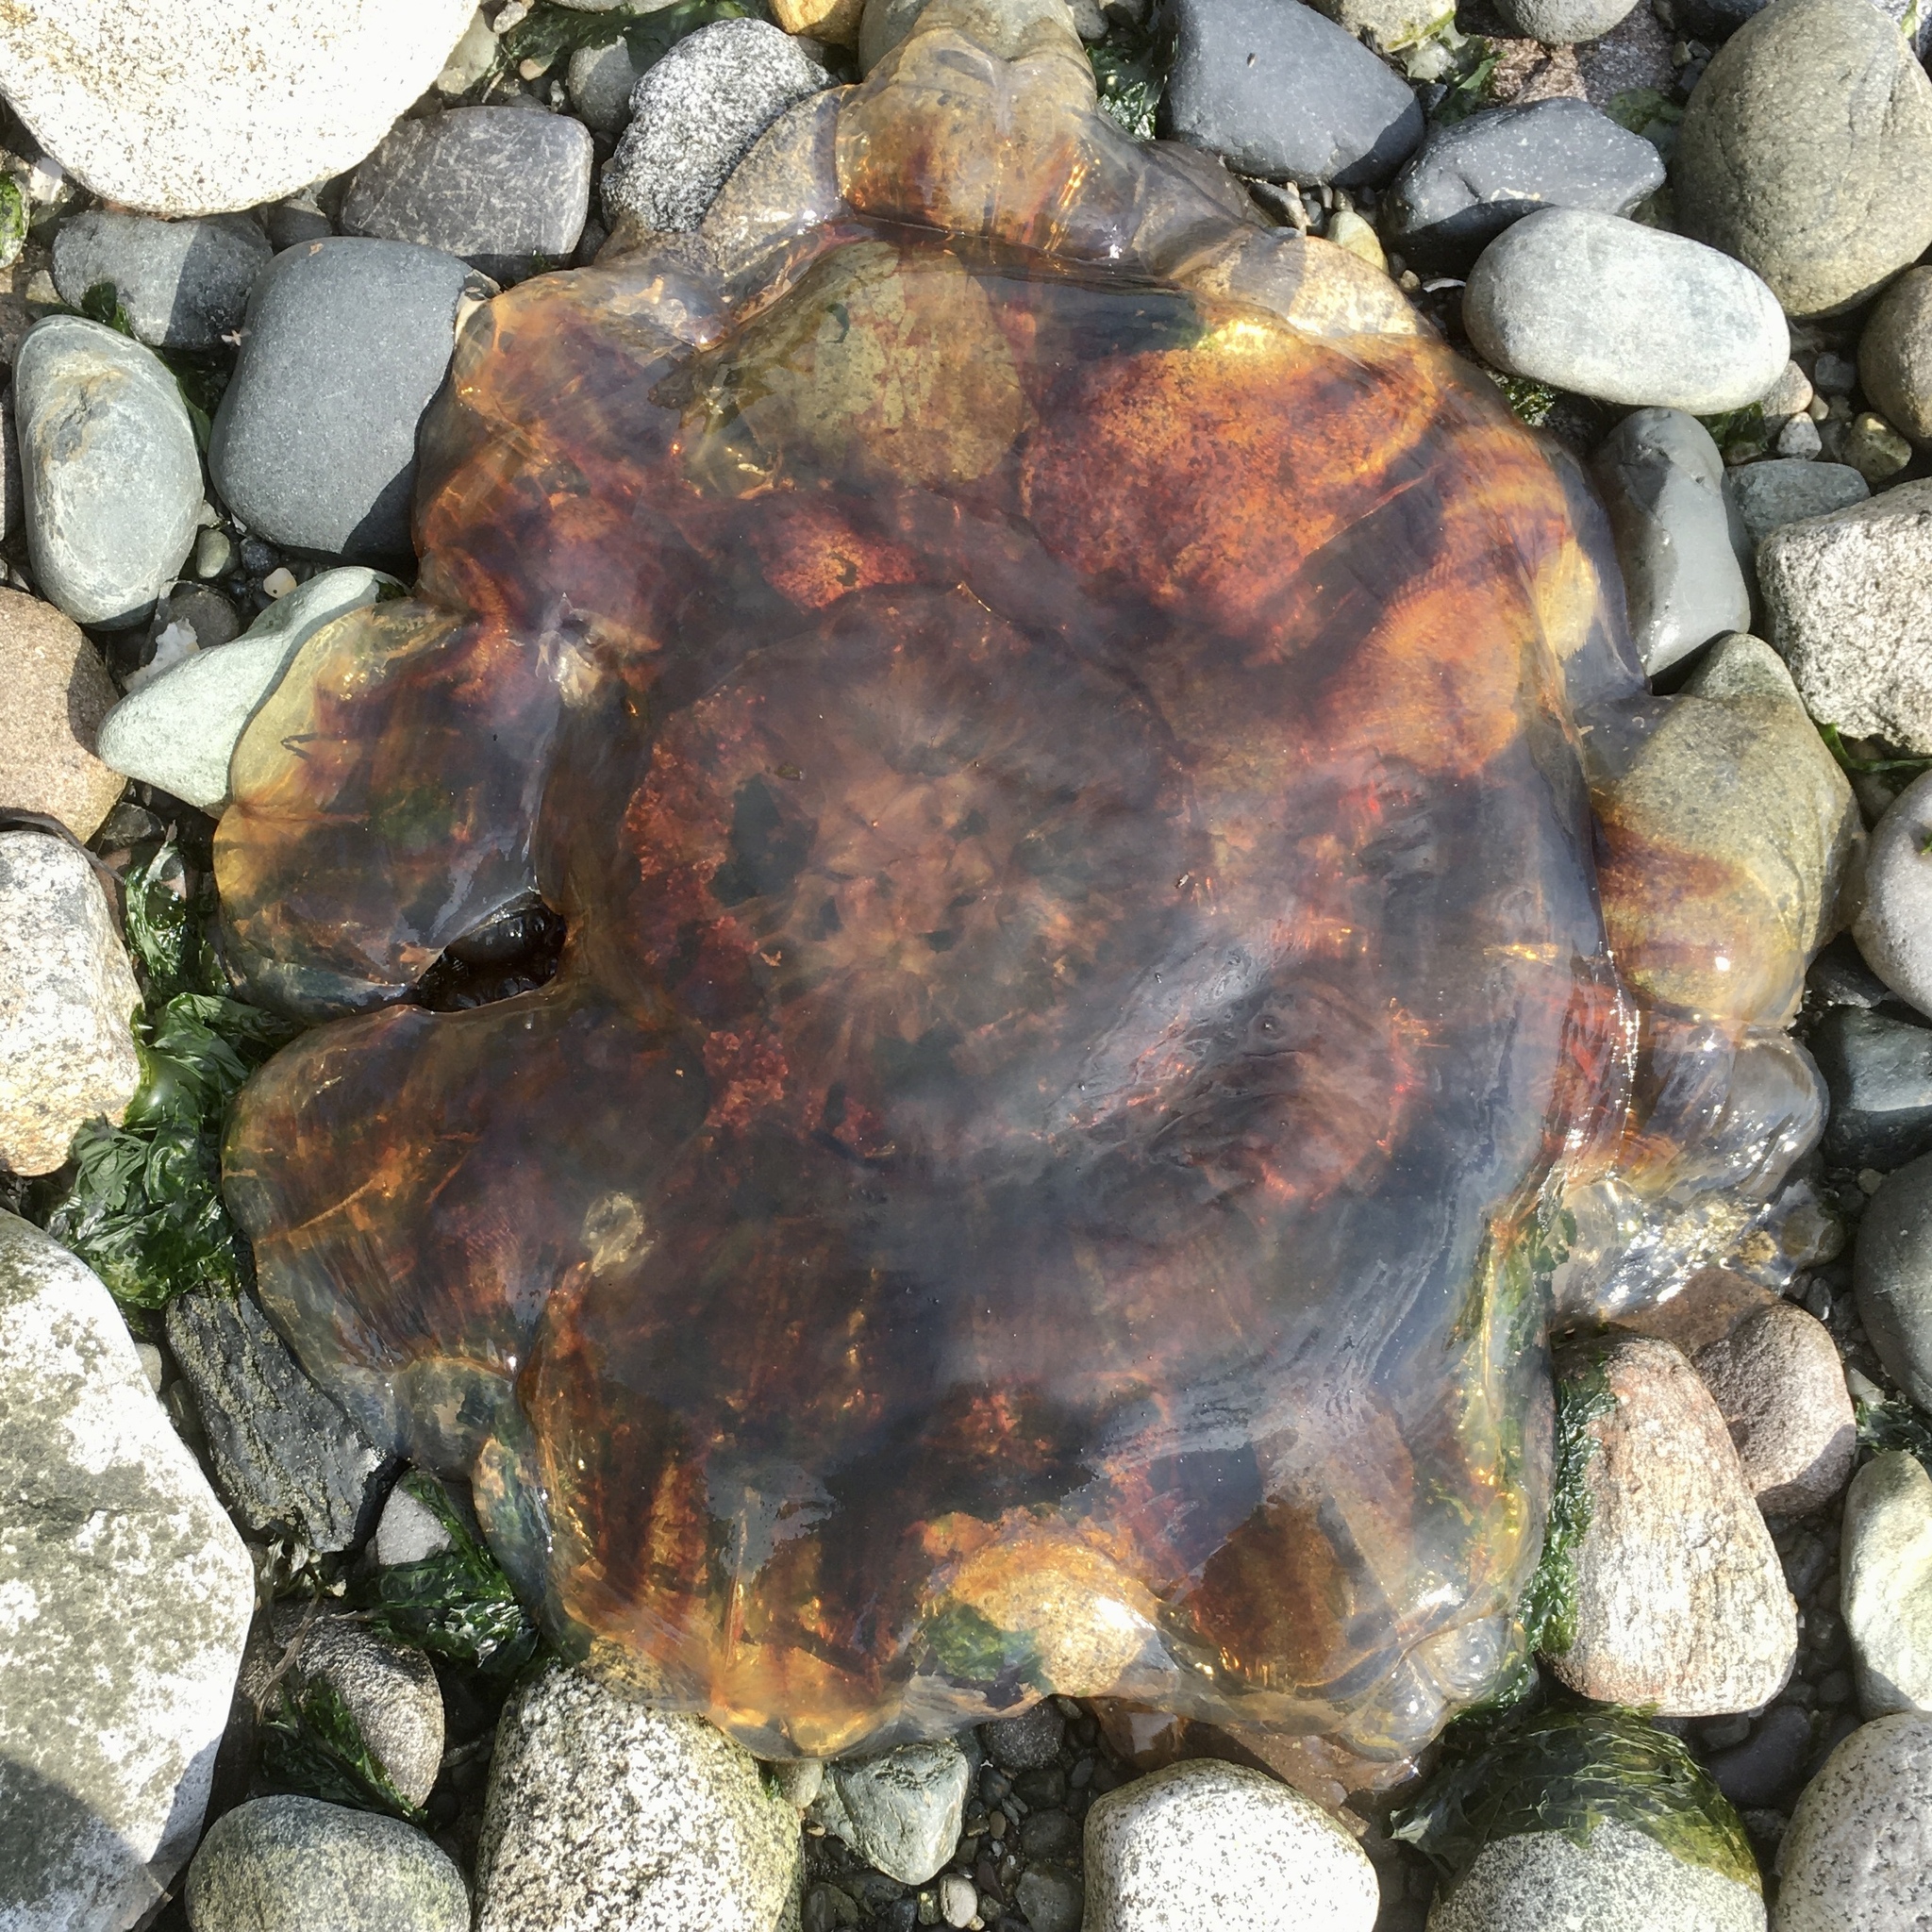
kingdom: Animalia
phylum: Cnidaria
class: Scyphozoa
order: Semaeostomeae
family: Cyaneidae
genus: Cyanea
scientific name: Cyanea ferruginea
